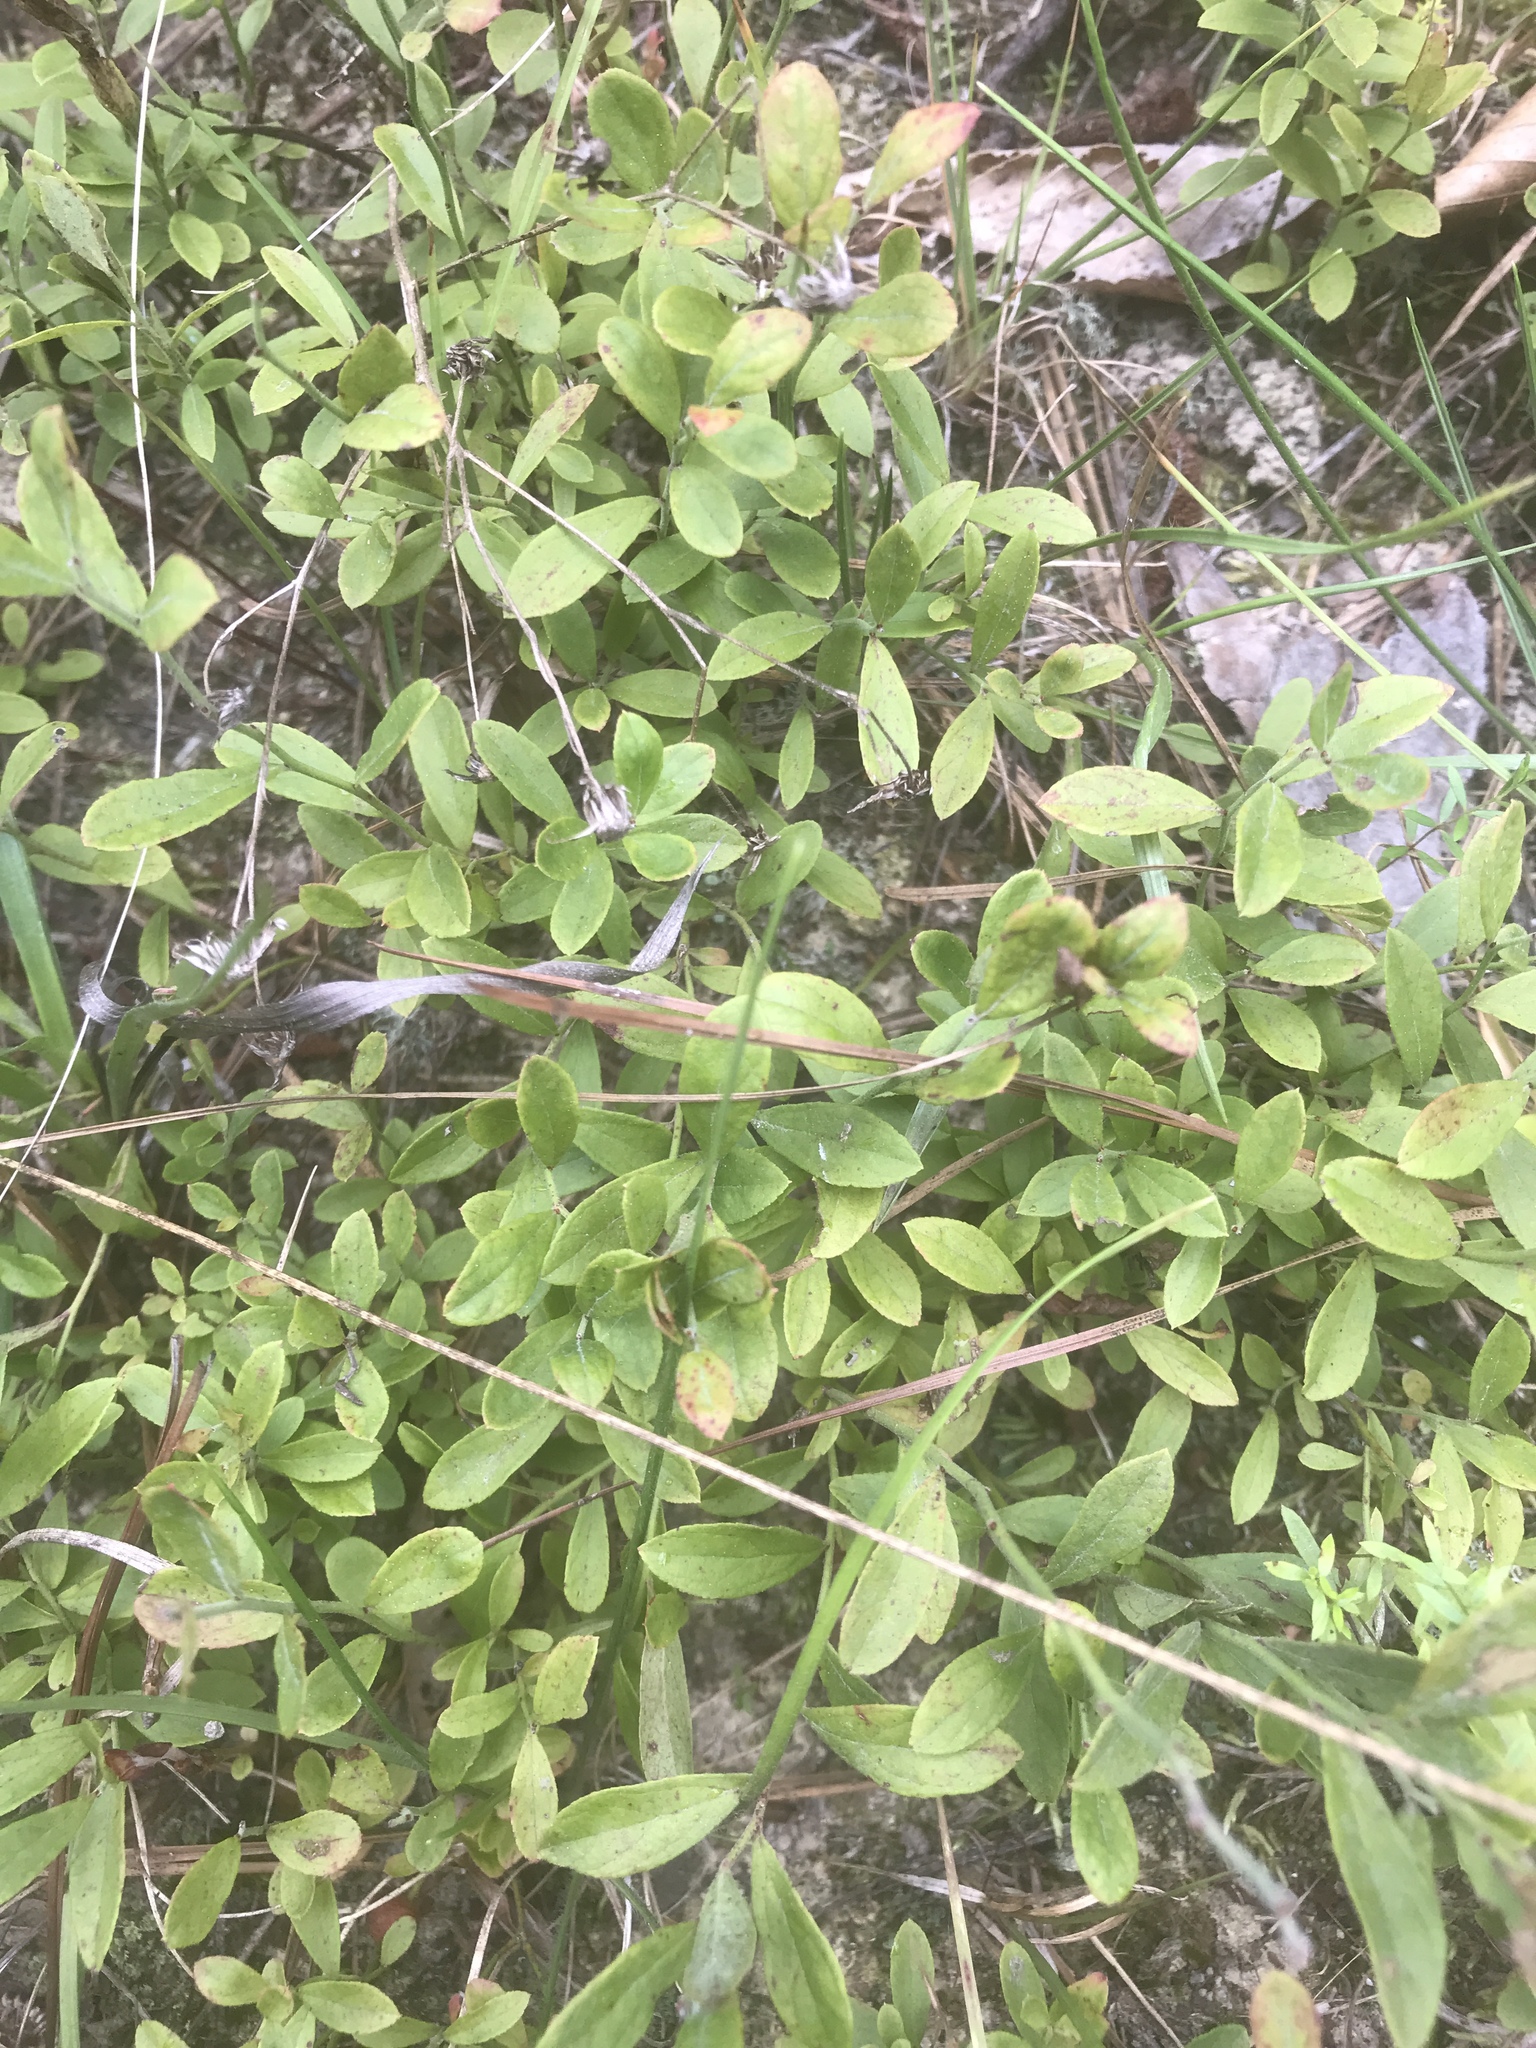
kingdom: Plantae
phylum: Tracheophyta
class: Magnoliopsida
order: Ericales
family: Ericaceae
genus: Vaccinium
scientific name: Vaccinium tenellum
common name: Southern blueberry
